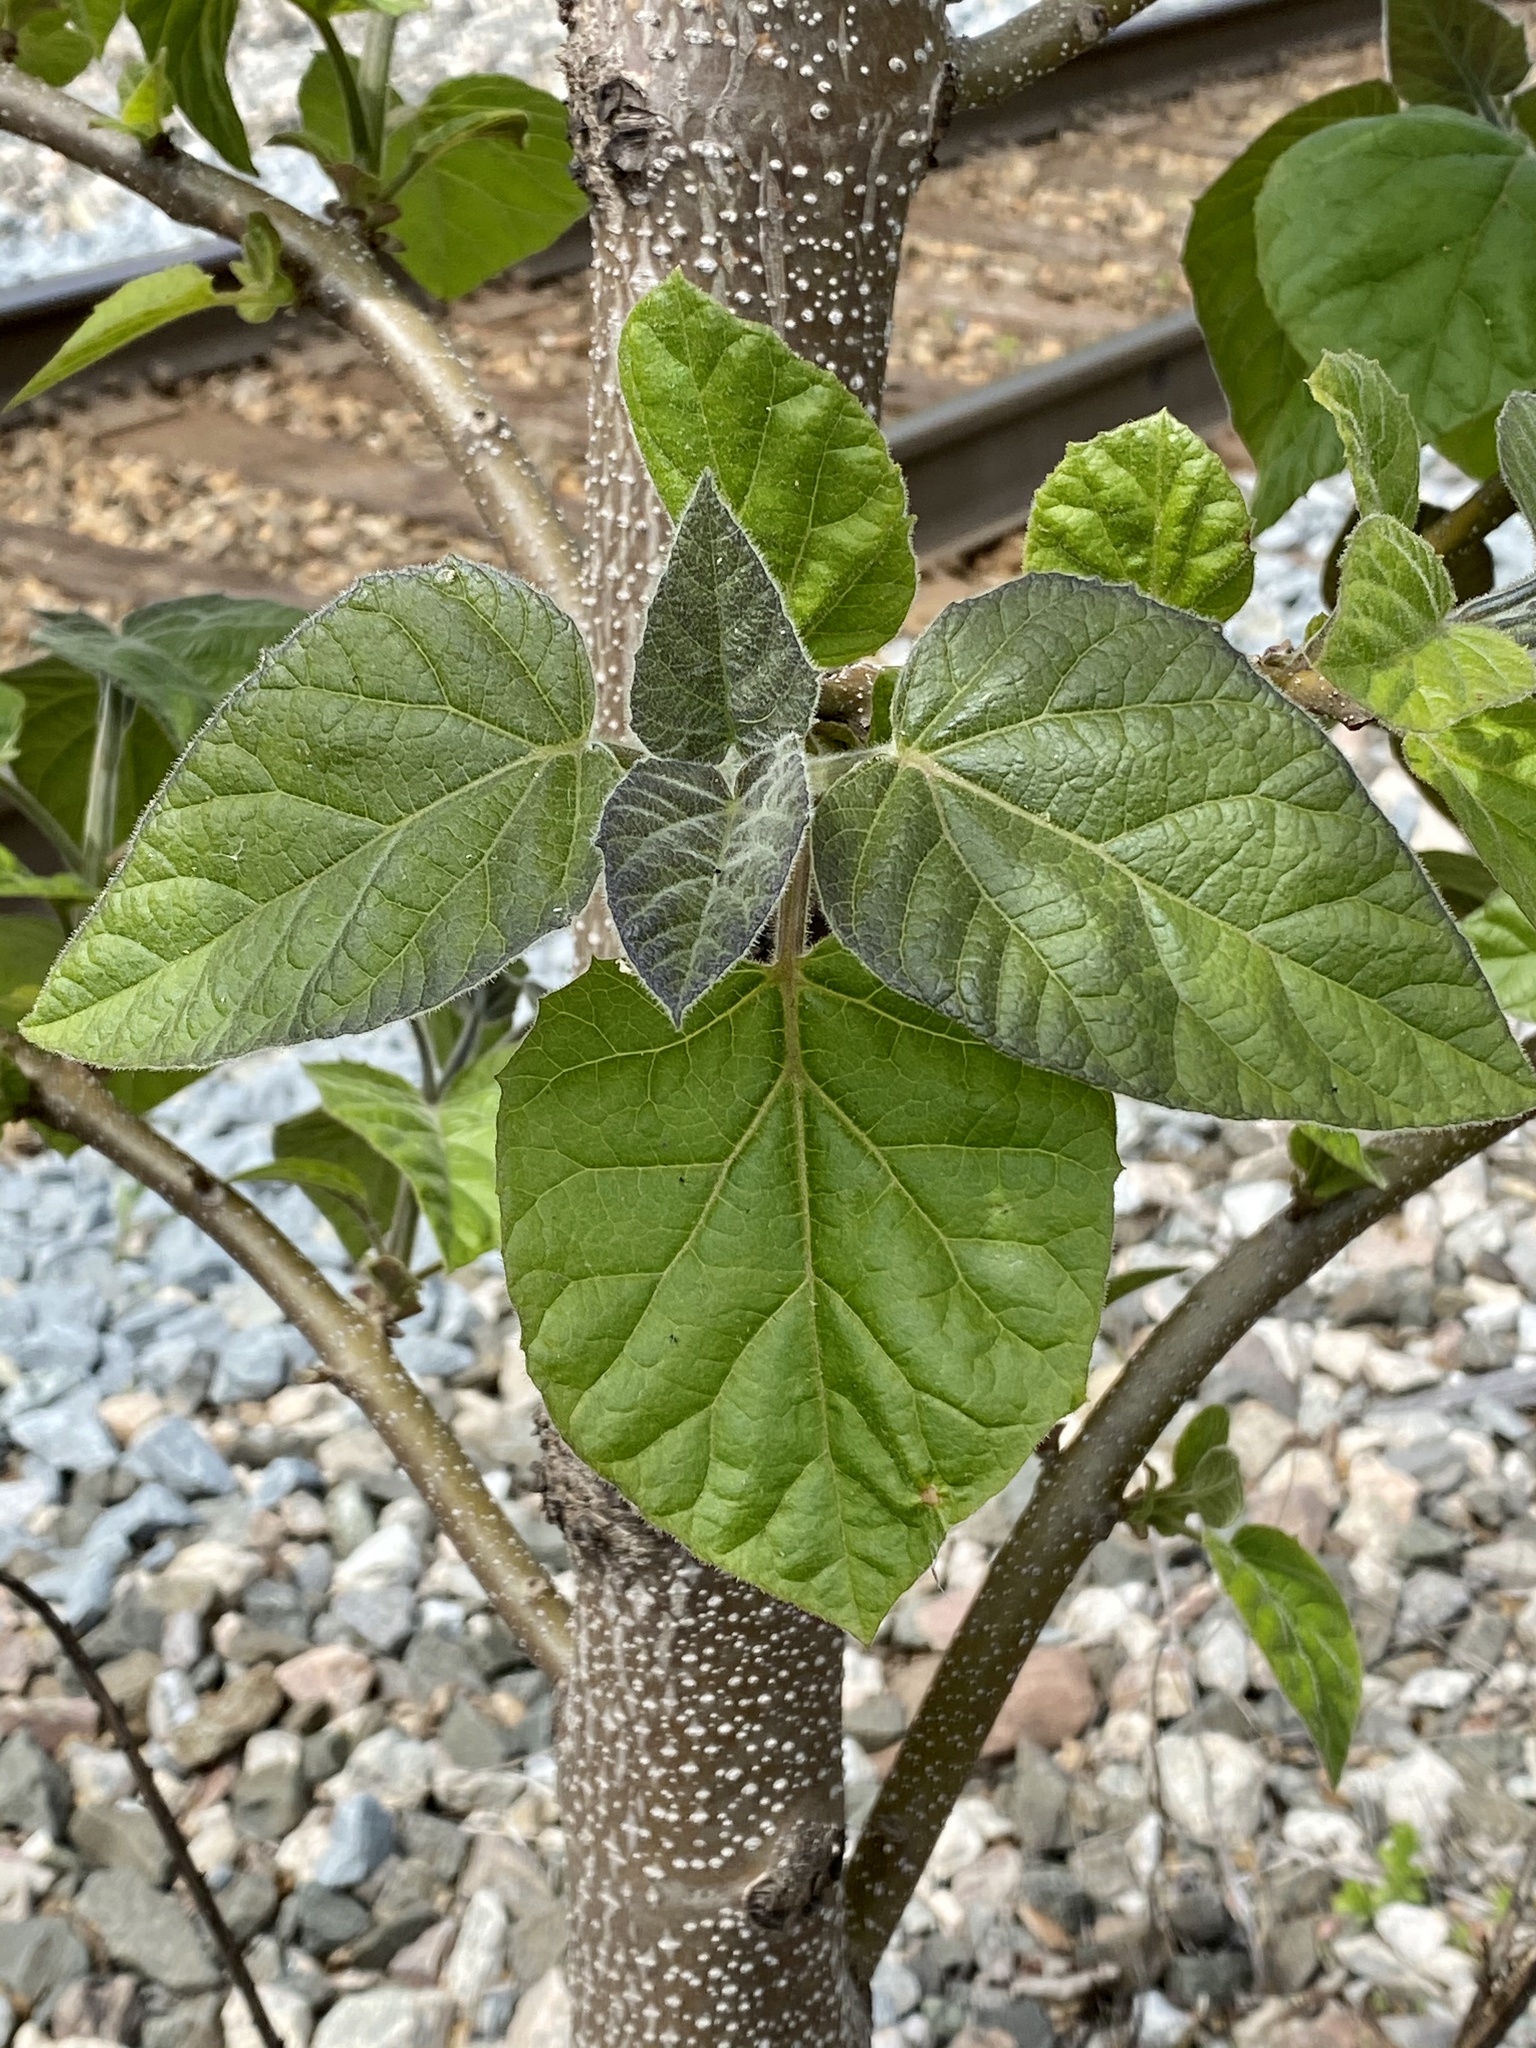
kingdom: Plantae
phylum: Tracheophyta
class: Magnoliopsida
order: Lamiales
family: Paulowniaceae
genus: Paulownia
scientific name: Paulownia tomentosa
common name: Foxglove-tree
